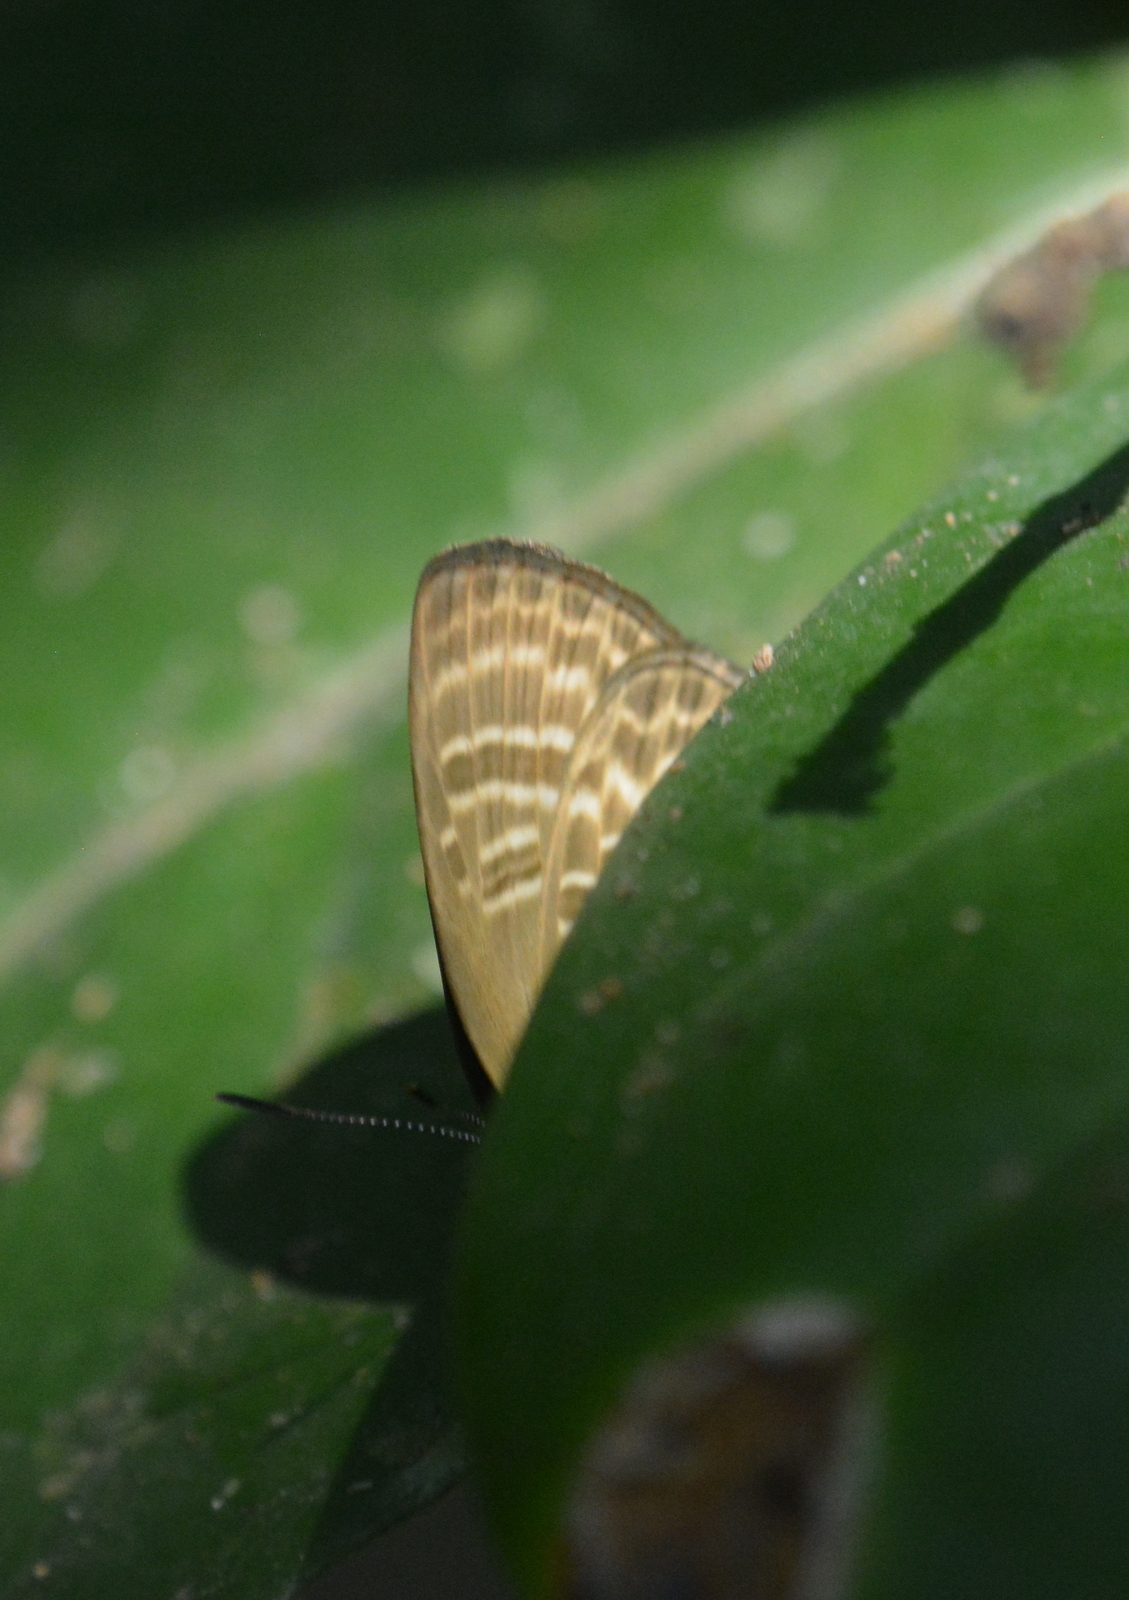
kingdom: Animalia
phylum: Arthropoda
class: Insecta
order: Lepidoptera
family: Lycaenidae
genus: Nacaduba
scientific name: Nacaduba pactolus
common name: Large fourline blue
